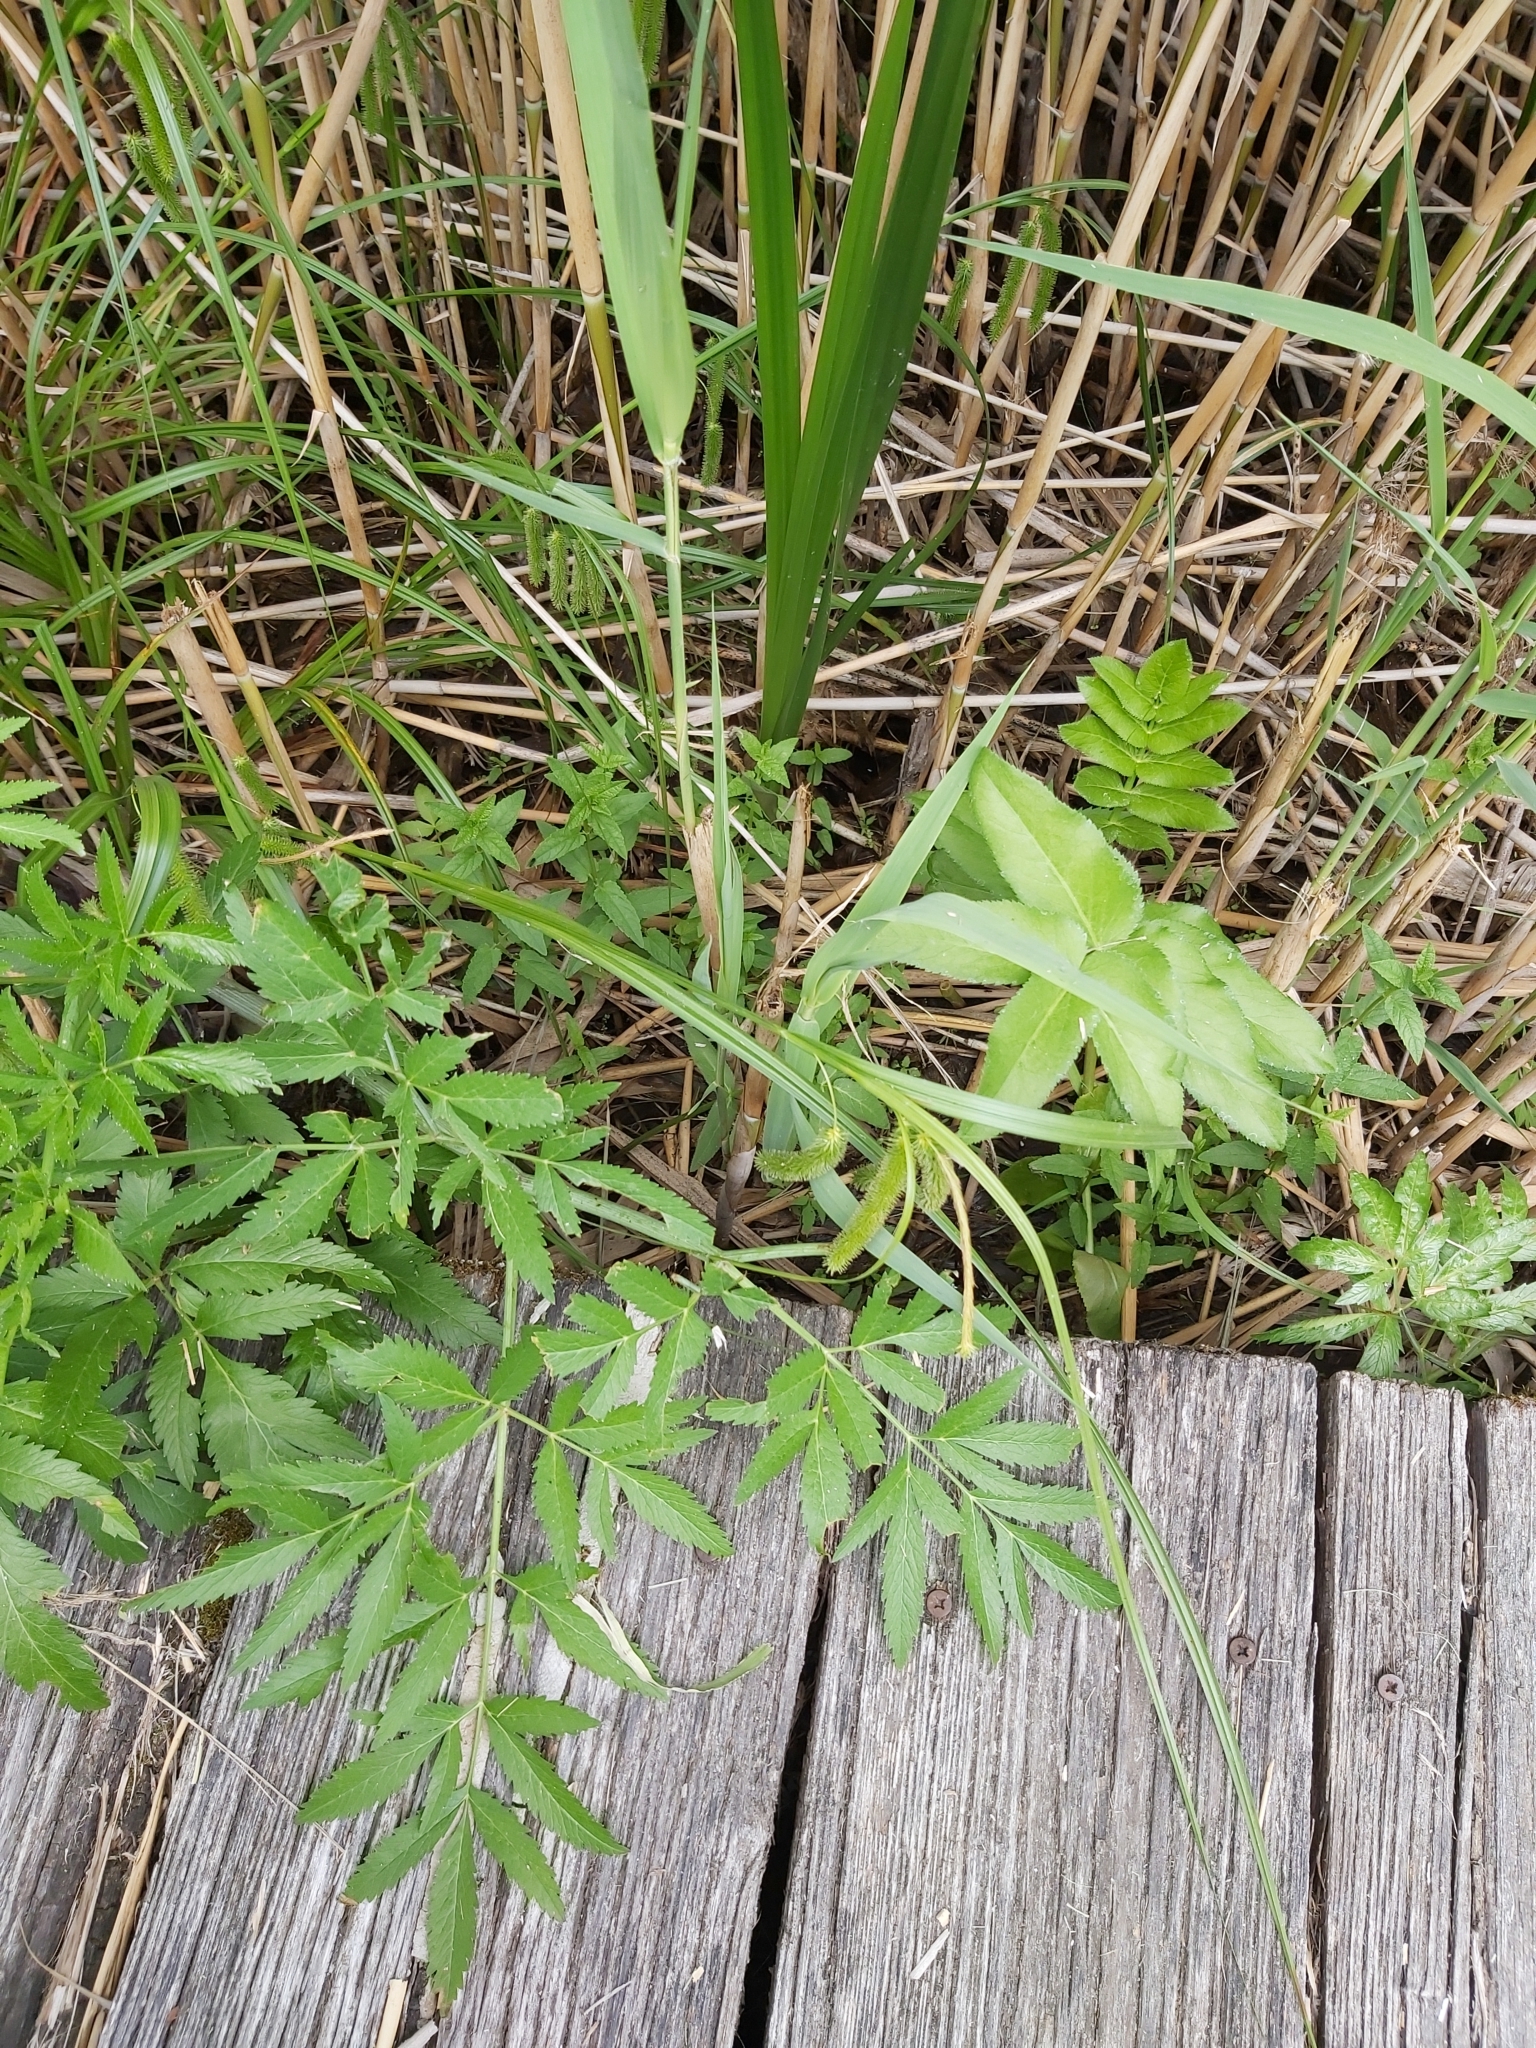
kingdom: Plantae
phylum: Tracheophyta
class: Liliopsida
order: Poales
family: Cyperaceae
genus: Carex
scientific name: Carex pseudocyperus
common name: Cyperus sedge
